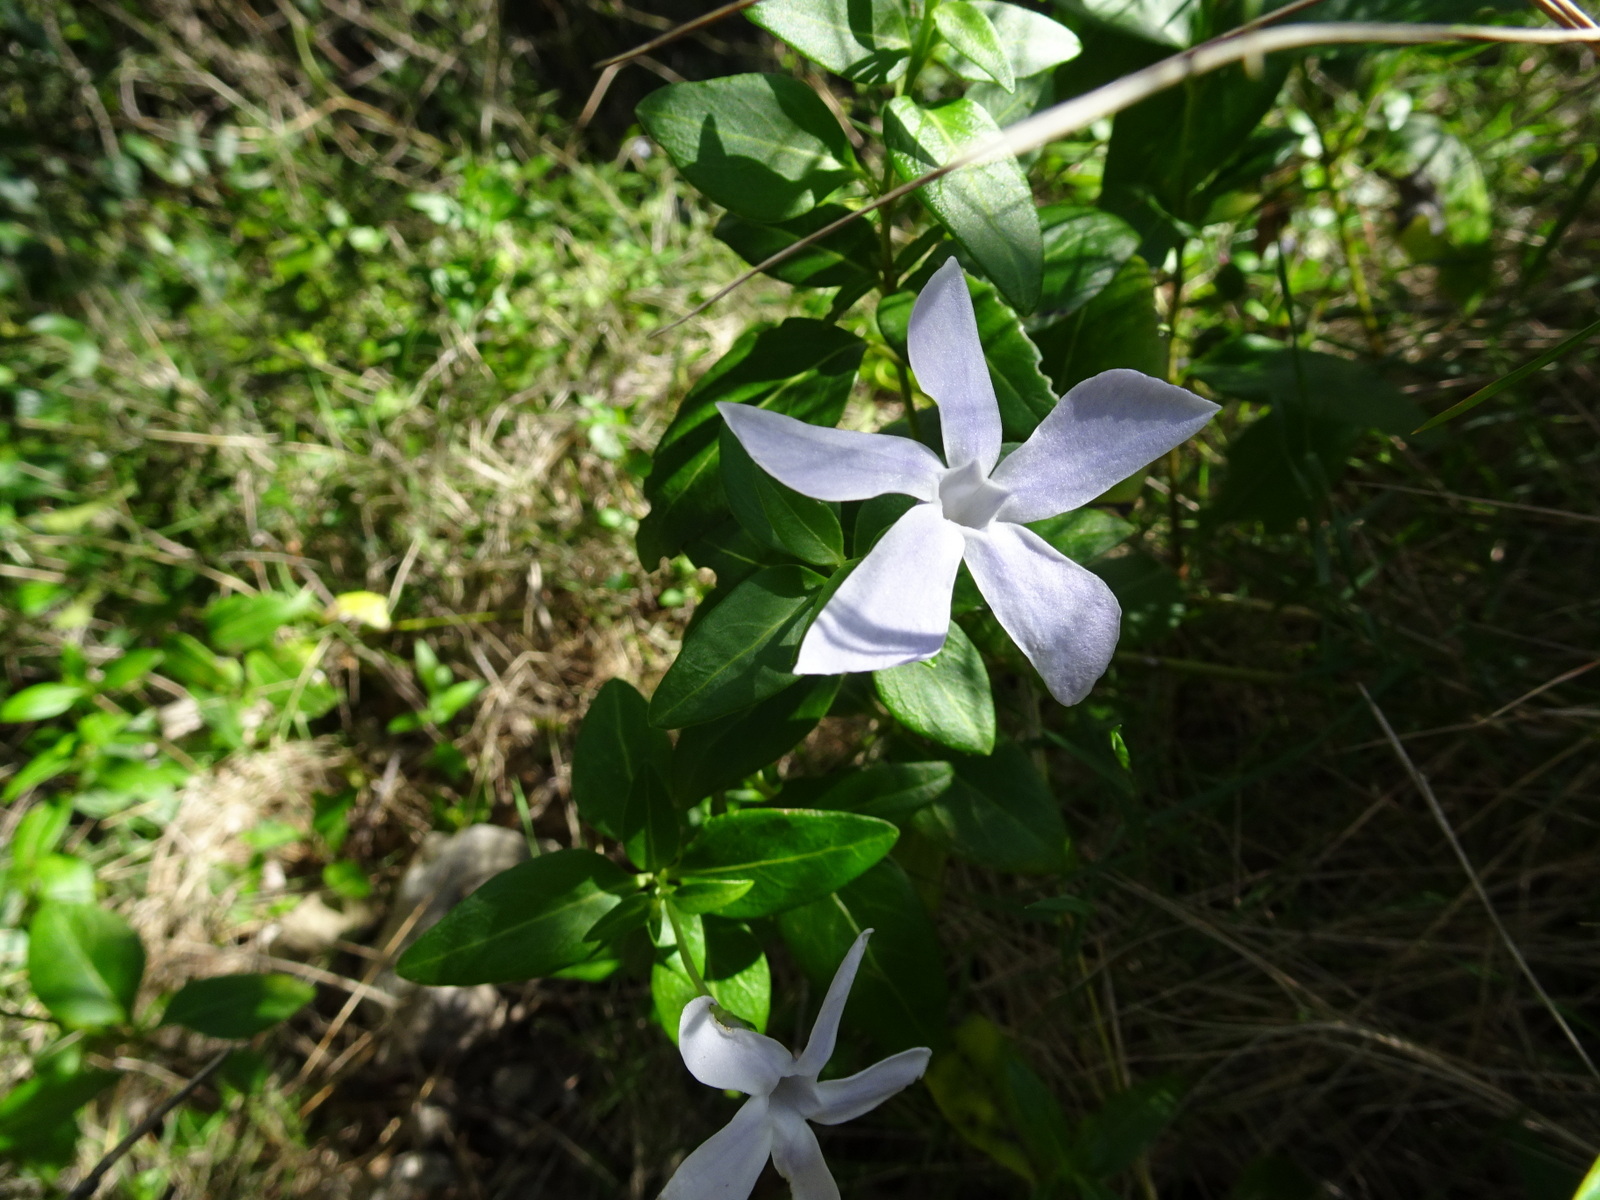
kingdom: Plantae
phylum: Tracheophyta
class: Magnoliopsida
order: Gentianales
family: Apocynaceae
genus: Vinca
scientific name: Vinca difformis
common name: Intermediate periwinkle
